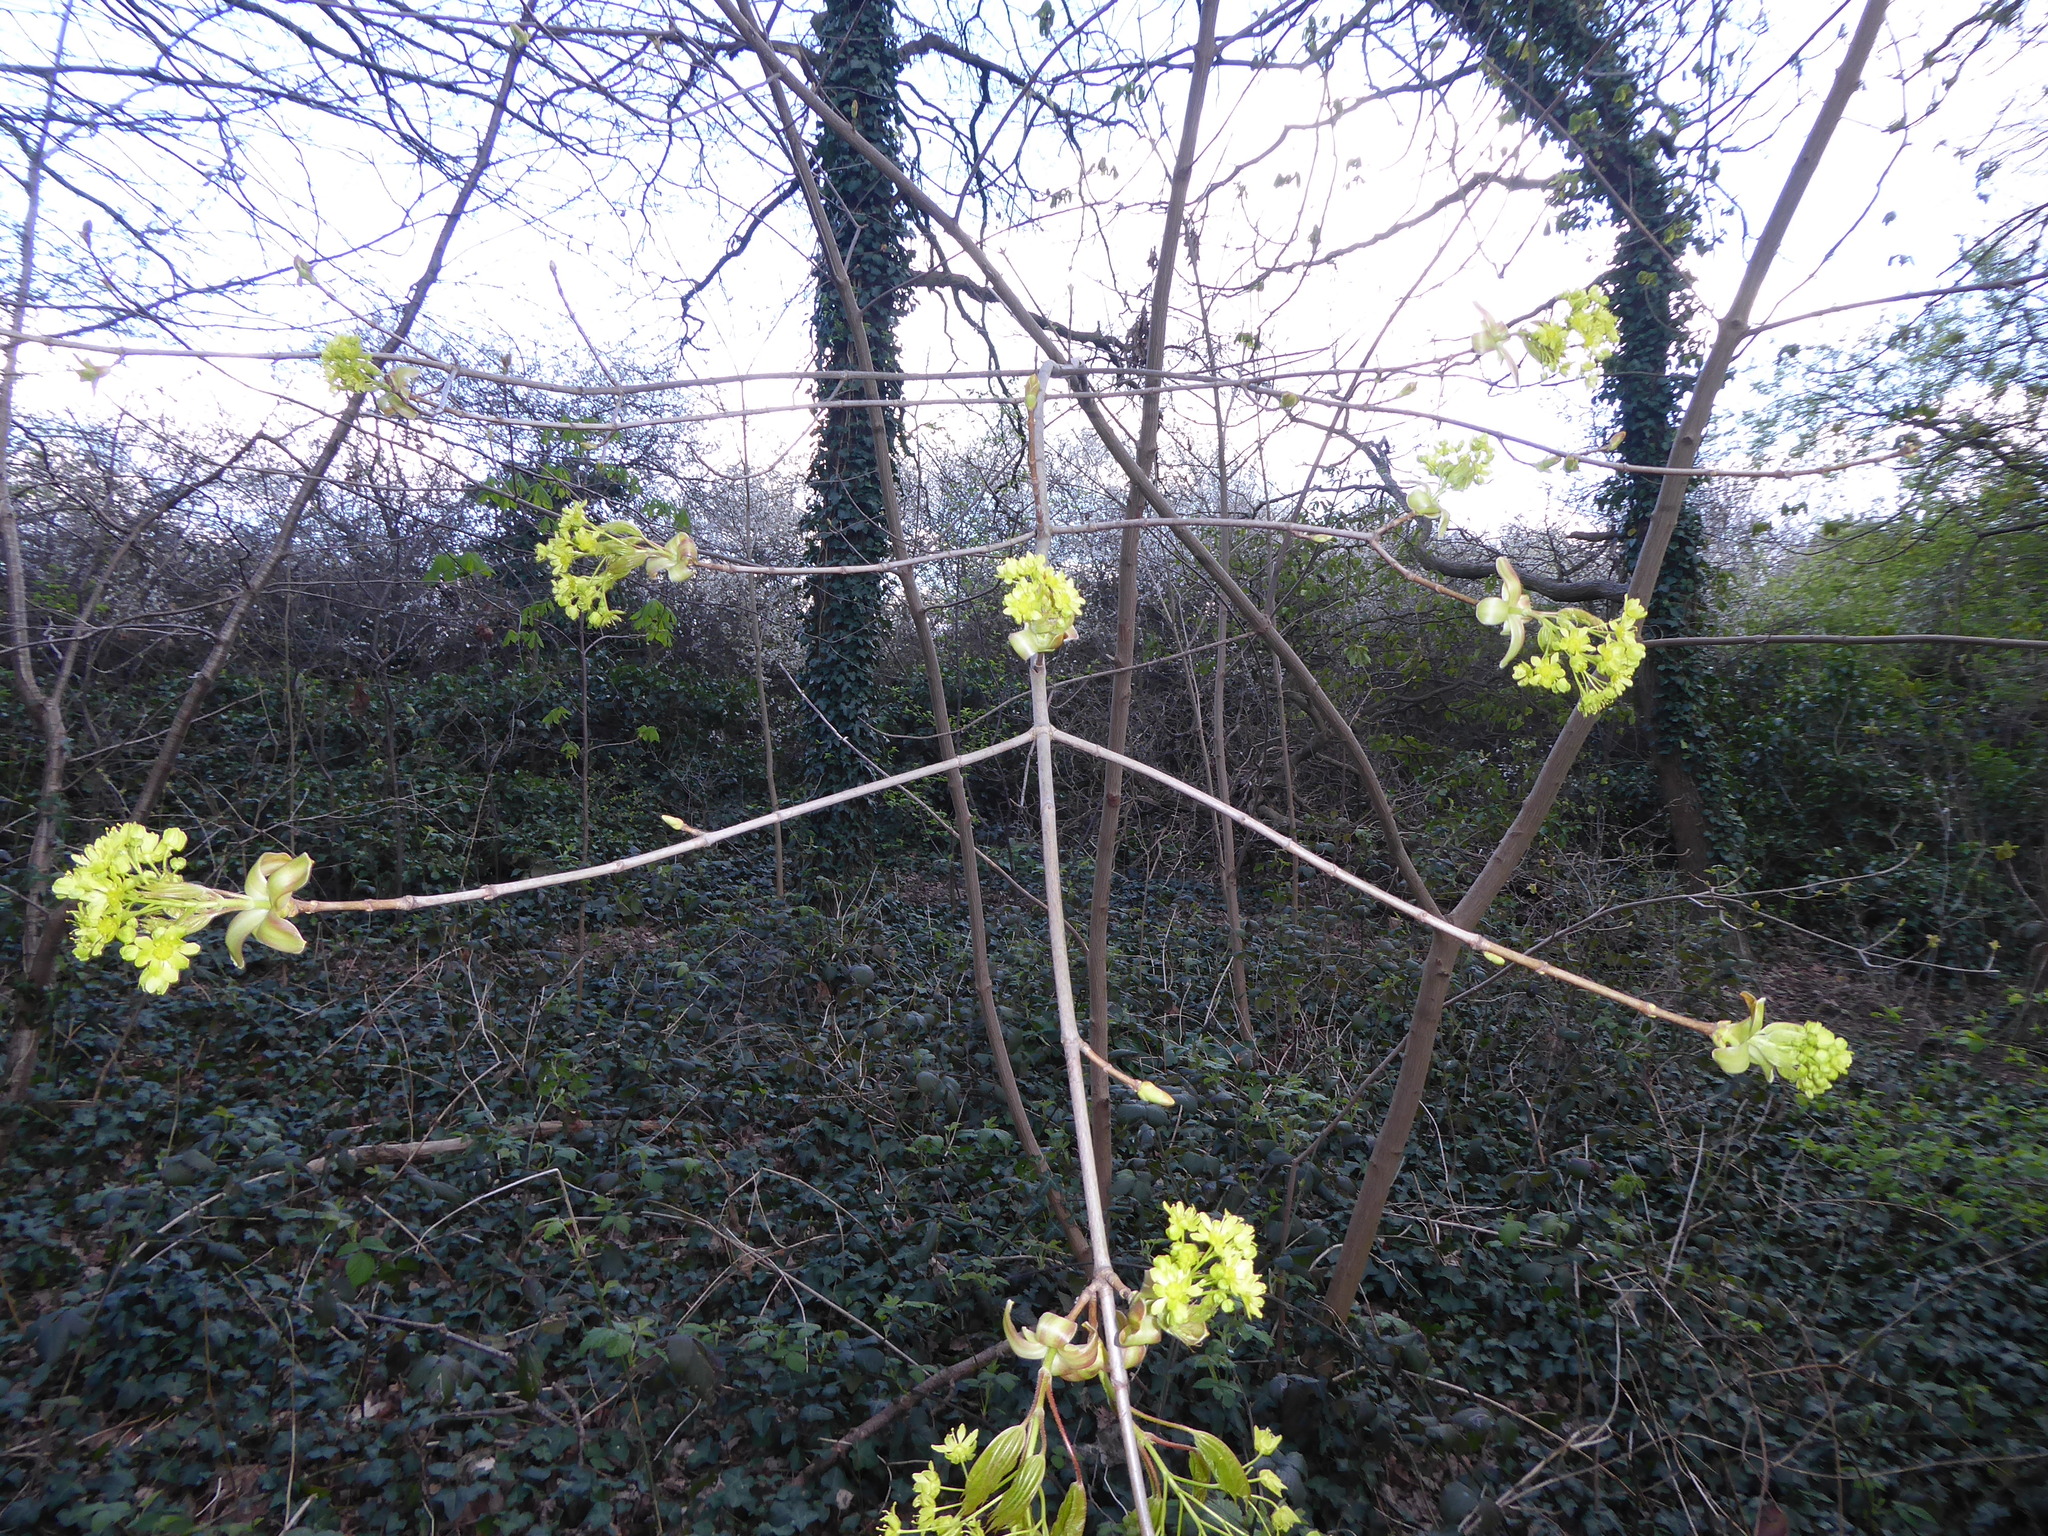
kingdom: Plantae
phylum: Tracheophyta
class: Magnoliopsida
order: Sapindales
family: Sapindaceae
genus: Acer
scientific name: Acer platanoides
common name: Norway maple
